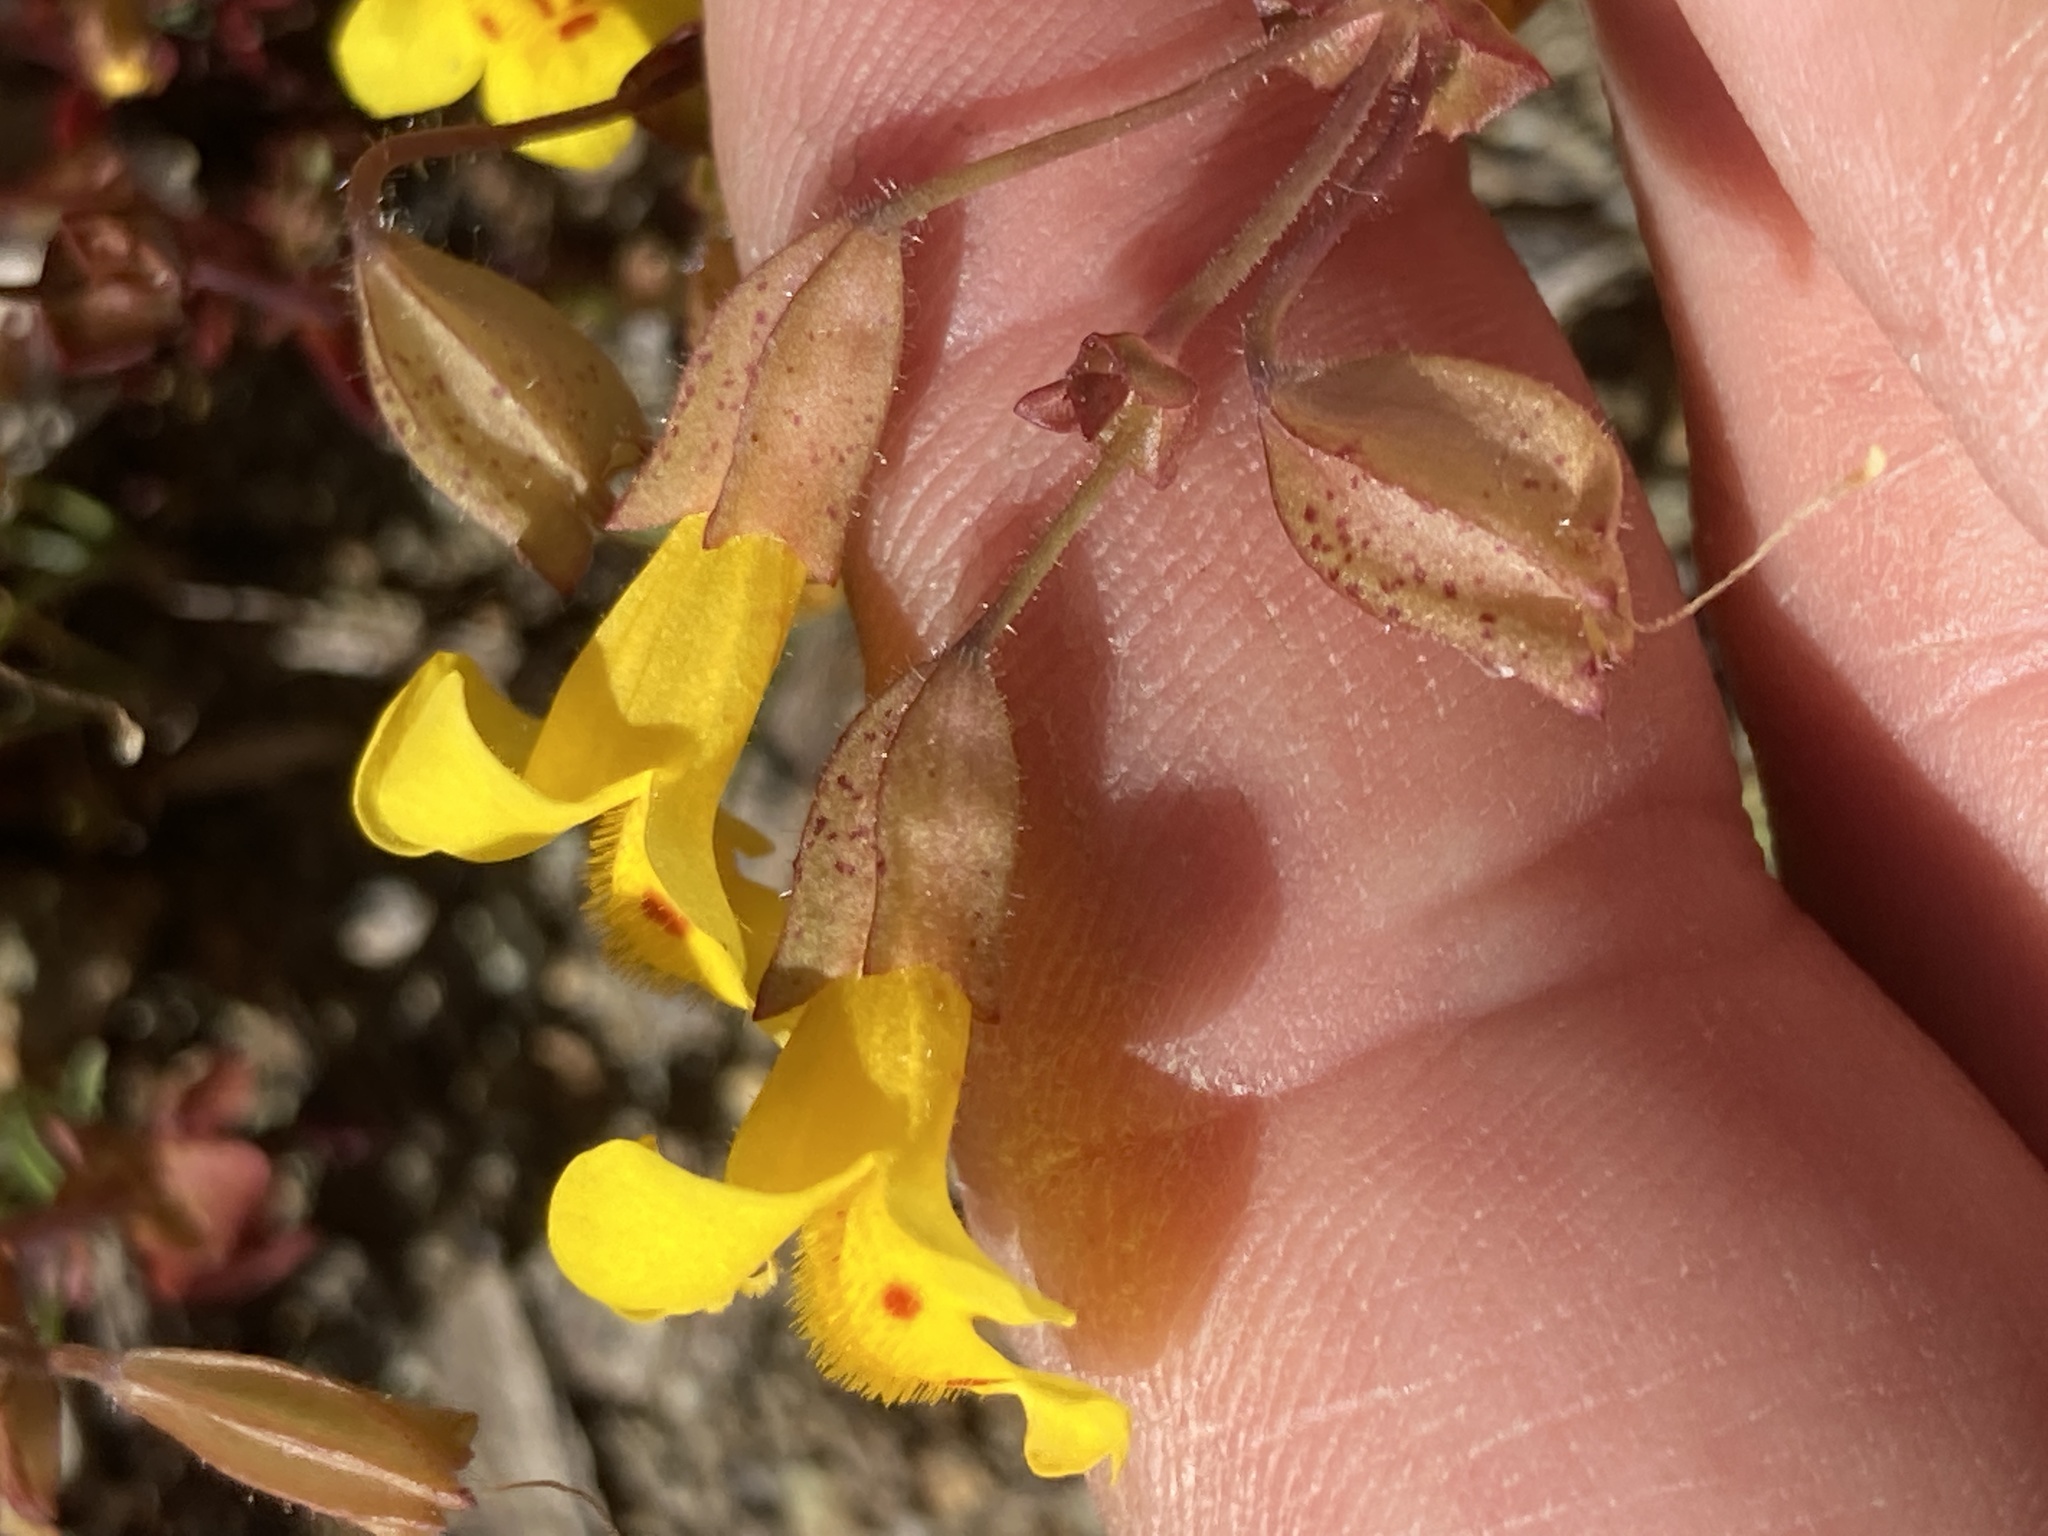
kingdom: Plantae
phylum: Tracheophyta
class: Magnoliopsida
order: Lamiales
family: Phrymaceae
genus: Erythranthe
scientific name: Erythranthe serpentinicola
